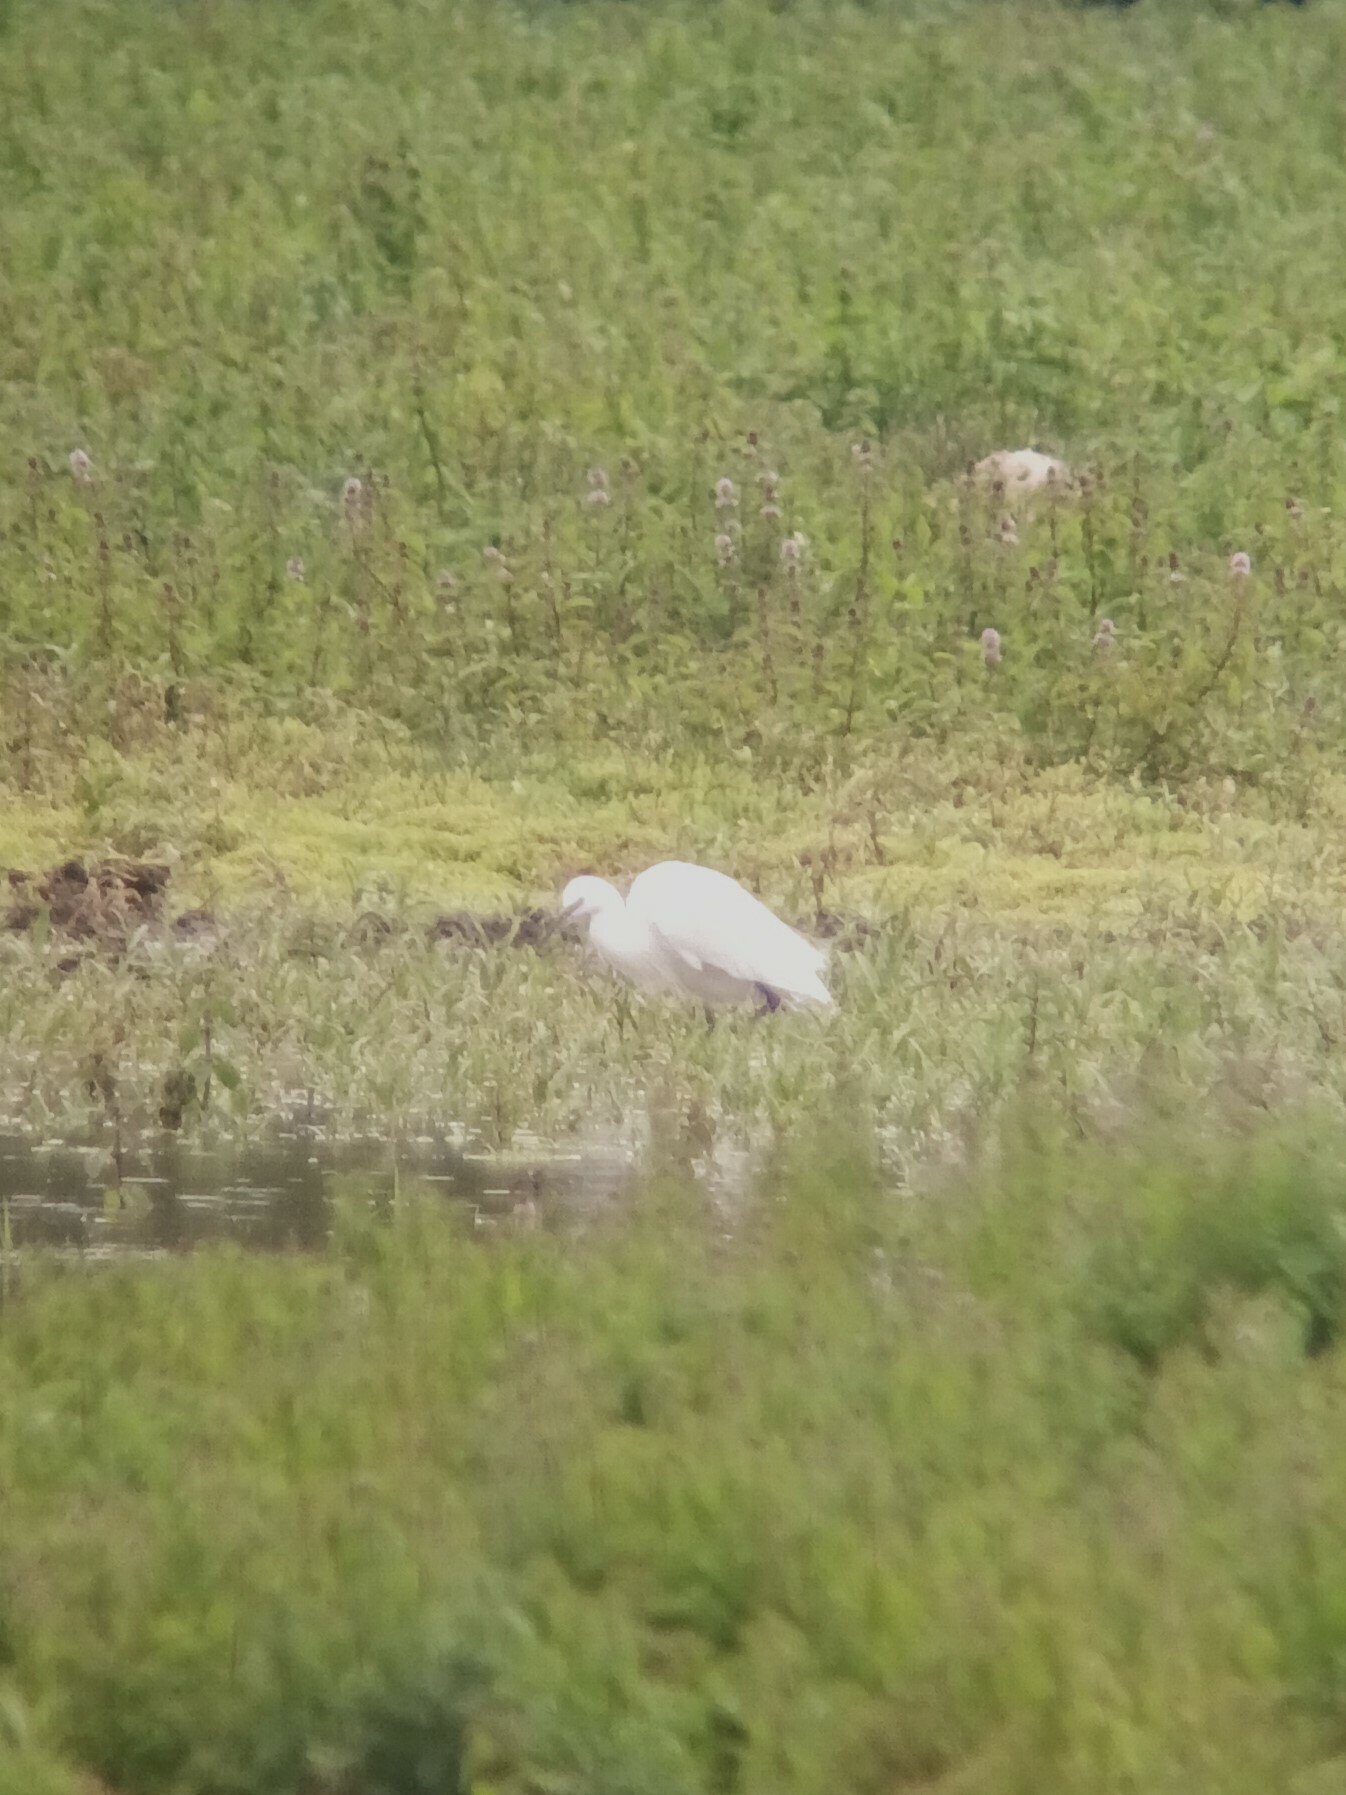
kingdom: Animalia
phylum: Chordata
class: Aves
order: Pelecaniformes
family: Ardeidae
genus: Egretta
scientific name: Egretta garzetta
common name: Little egret
